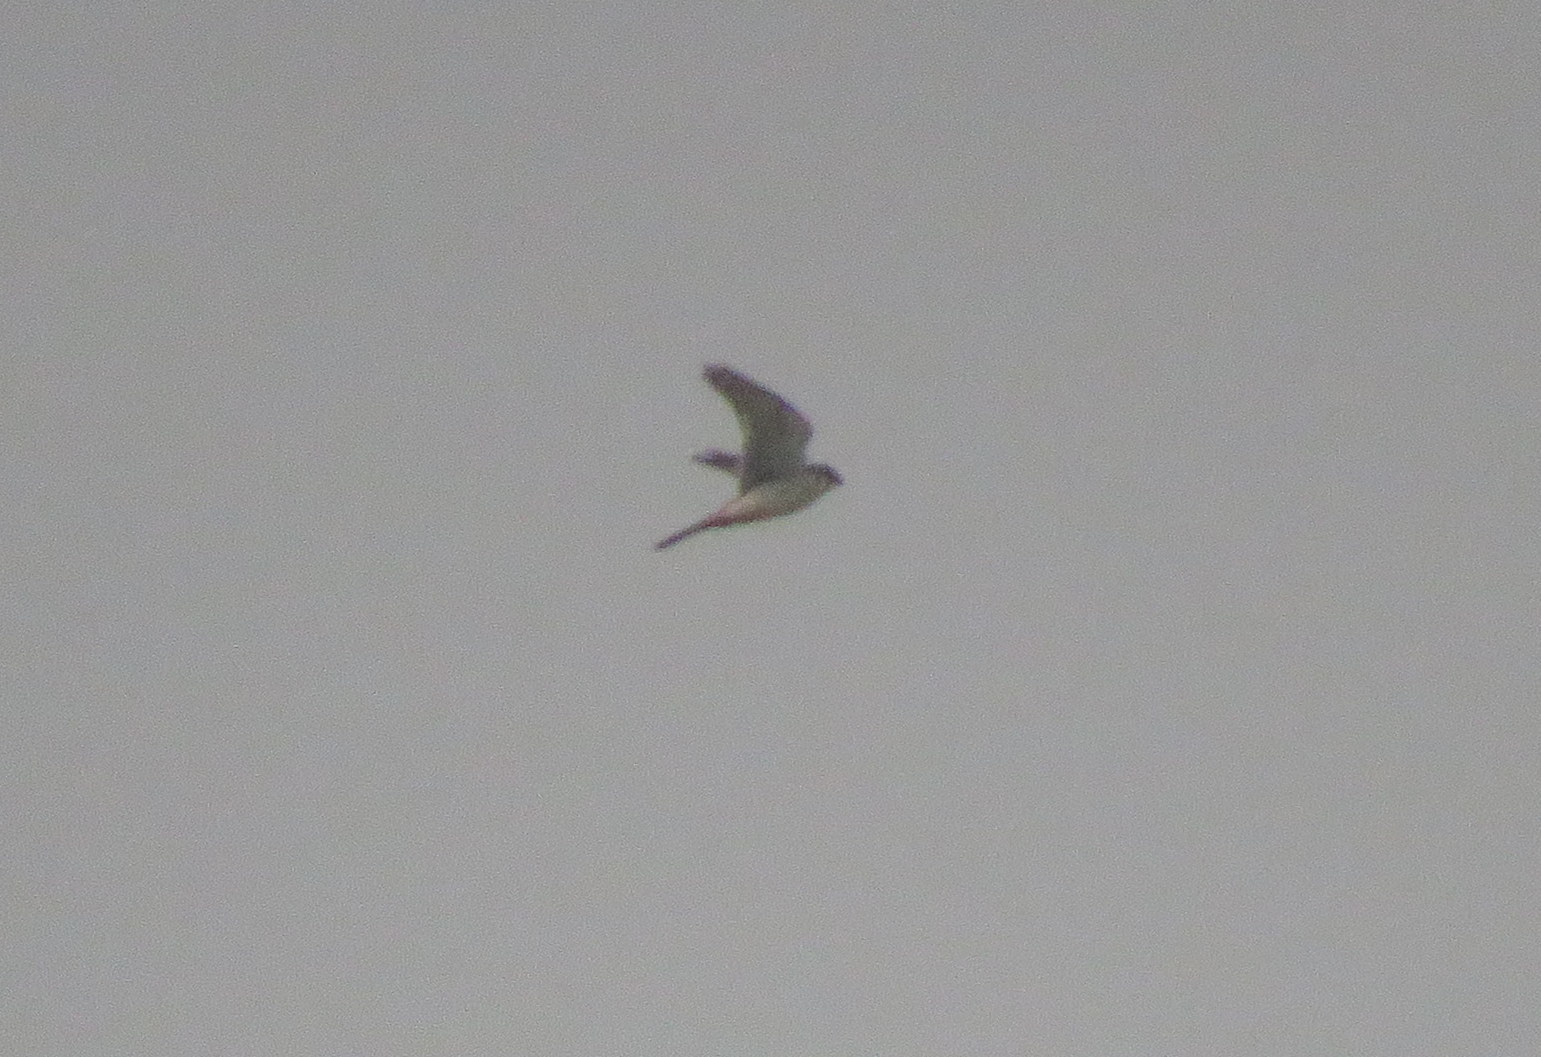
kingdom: Animalia
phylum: Chordata
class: Aves
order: Falconiformes
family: Falconidae
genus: Falco
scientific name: Falco sparverius
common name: American kestrel
